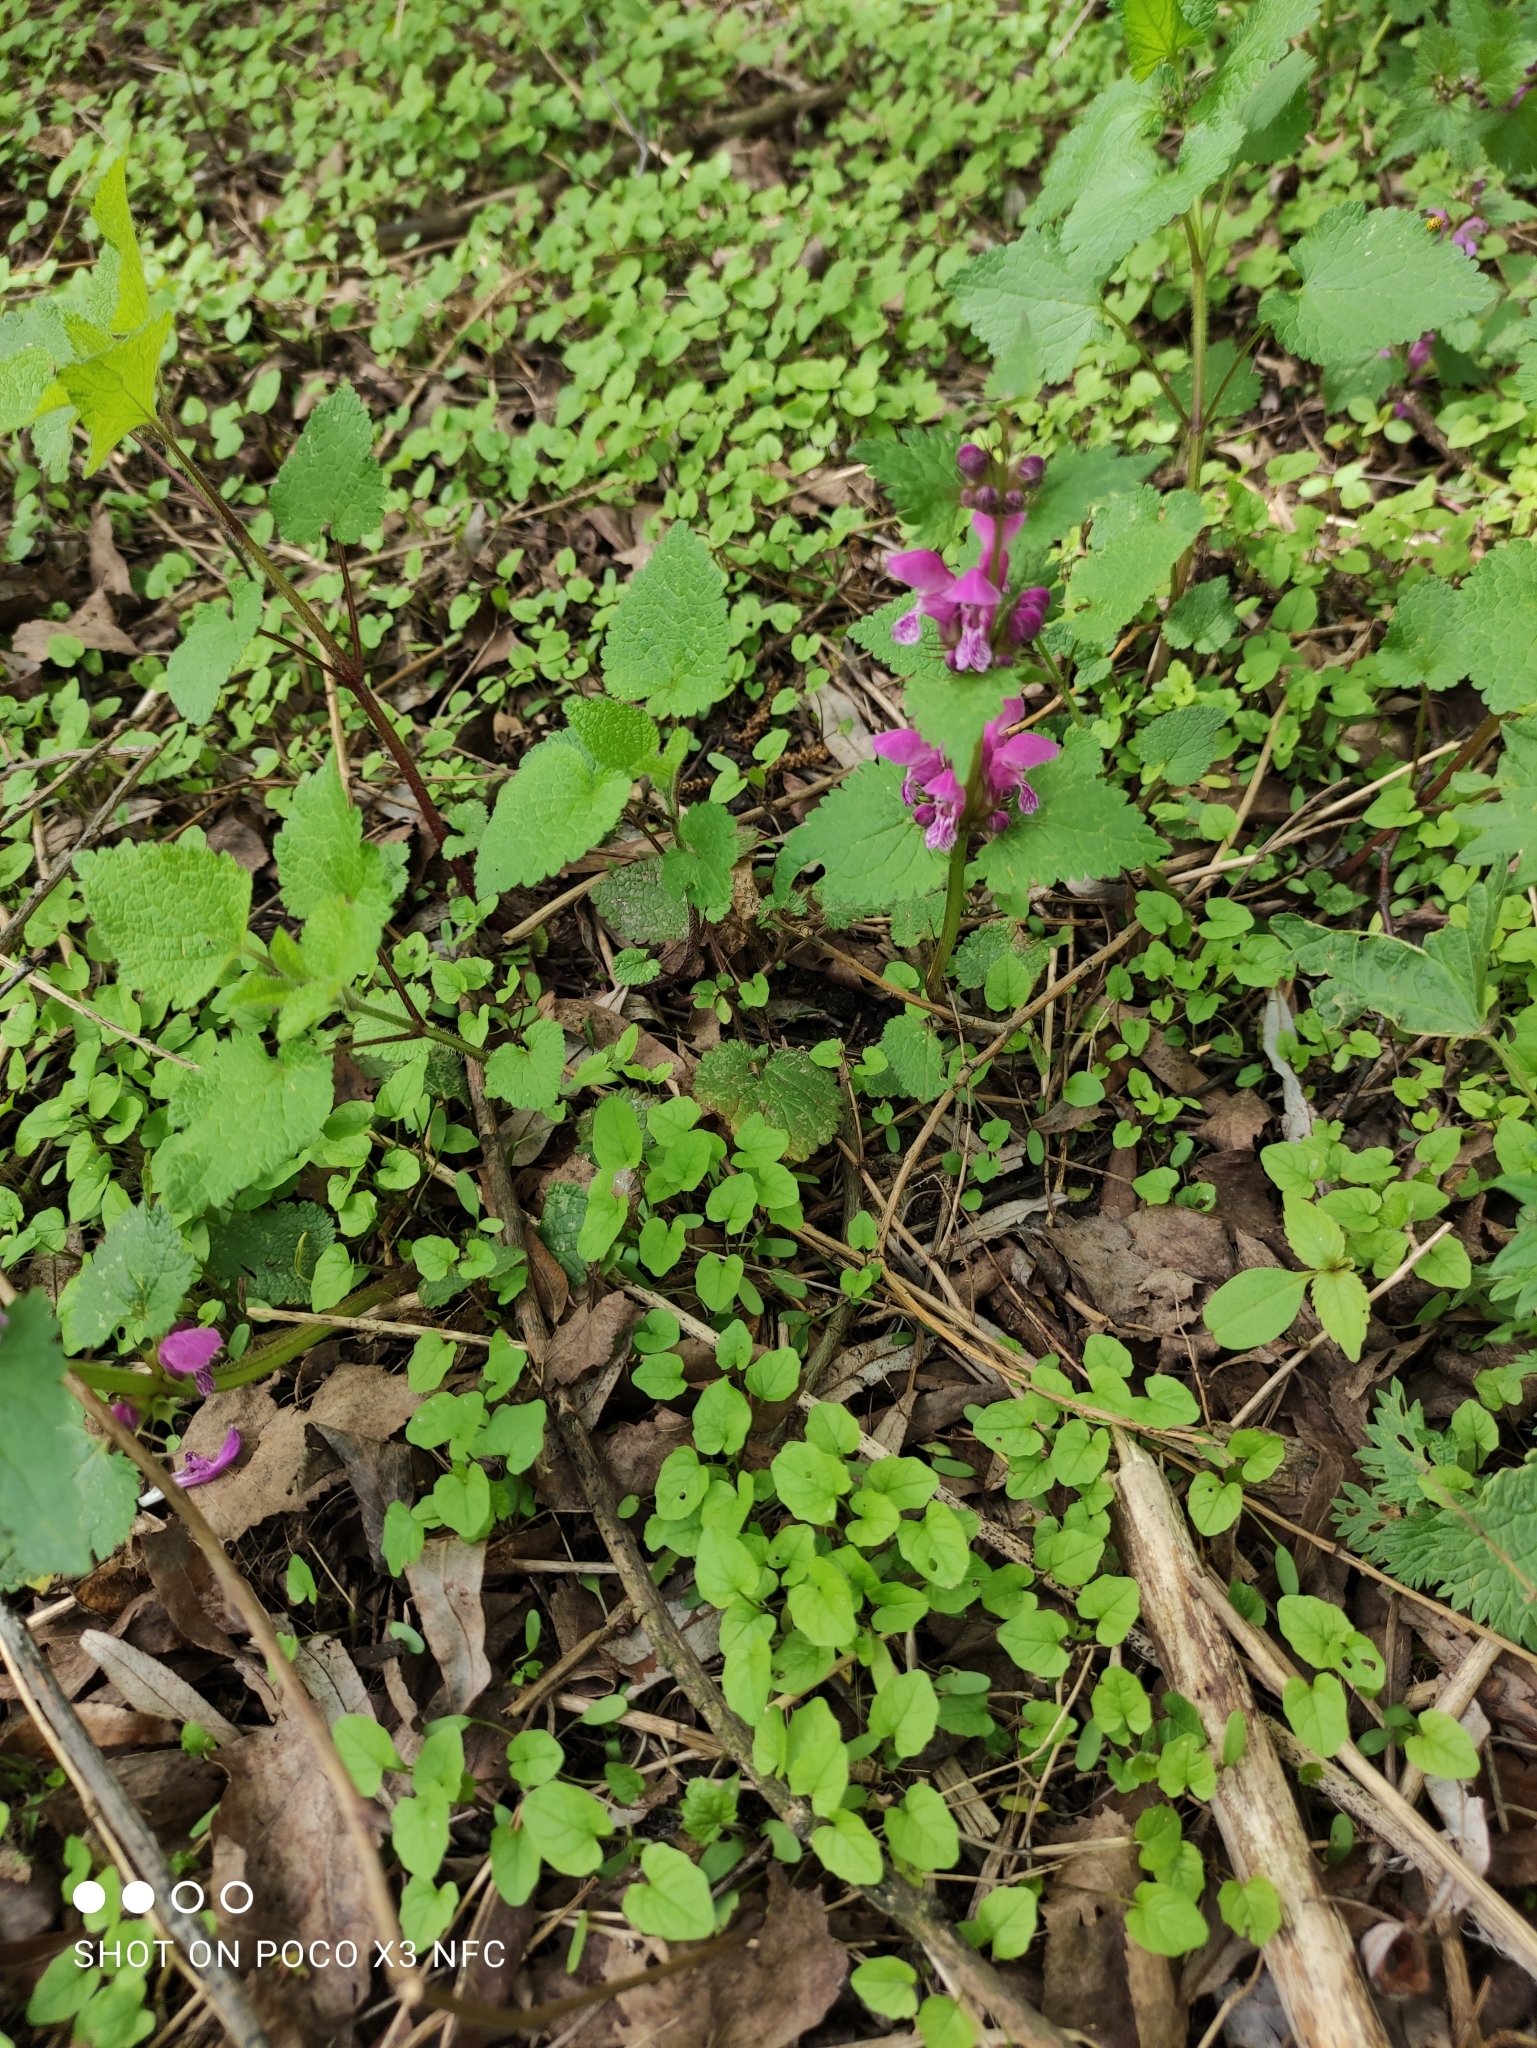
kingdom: Plantae
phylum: Tracheophyta
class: Magnoliopsida
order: Lamiales
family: Lamiaceae
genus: Lamium
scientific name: Lamium maculatum
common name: Spotted dead-nettle
